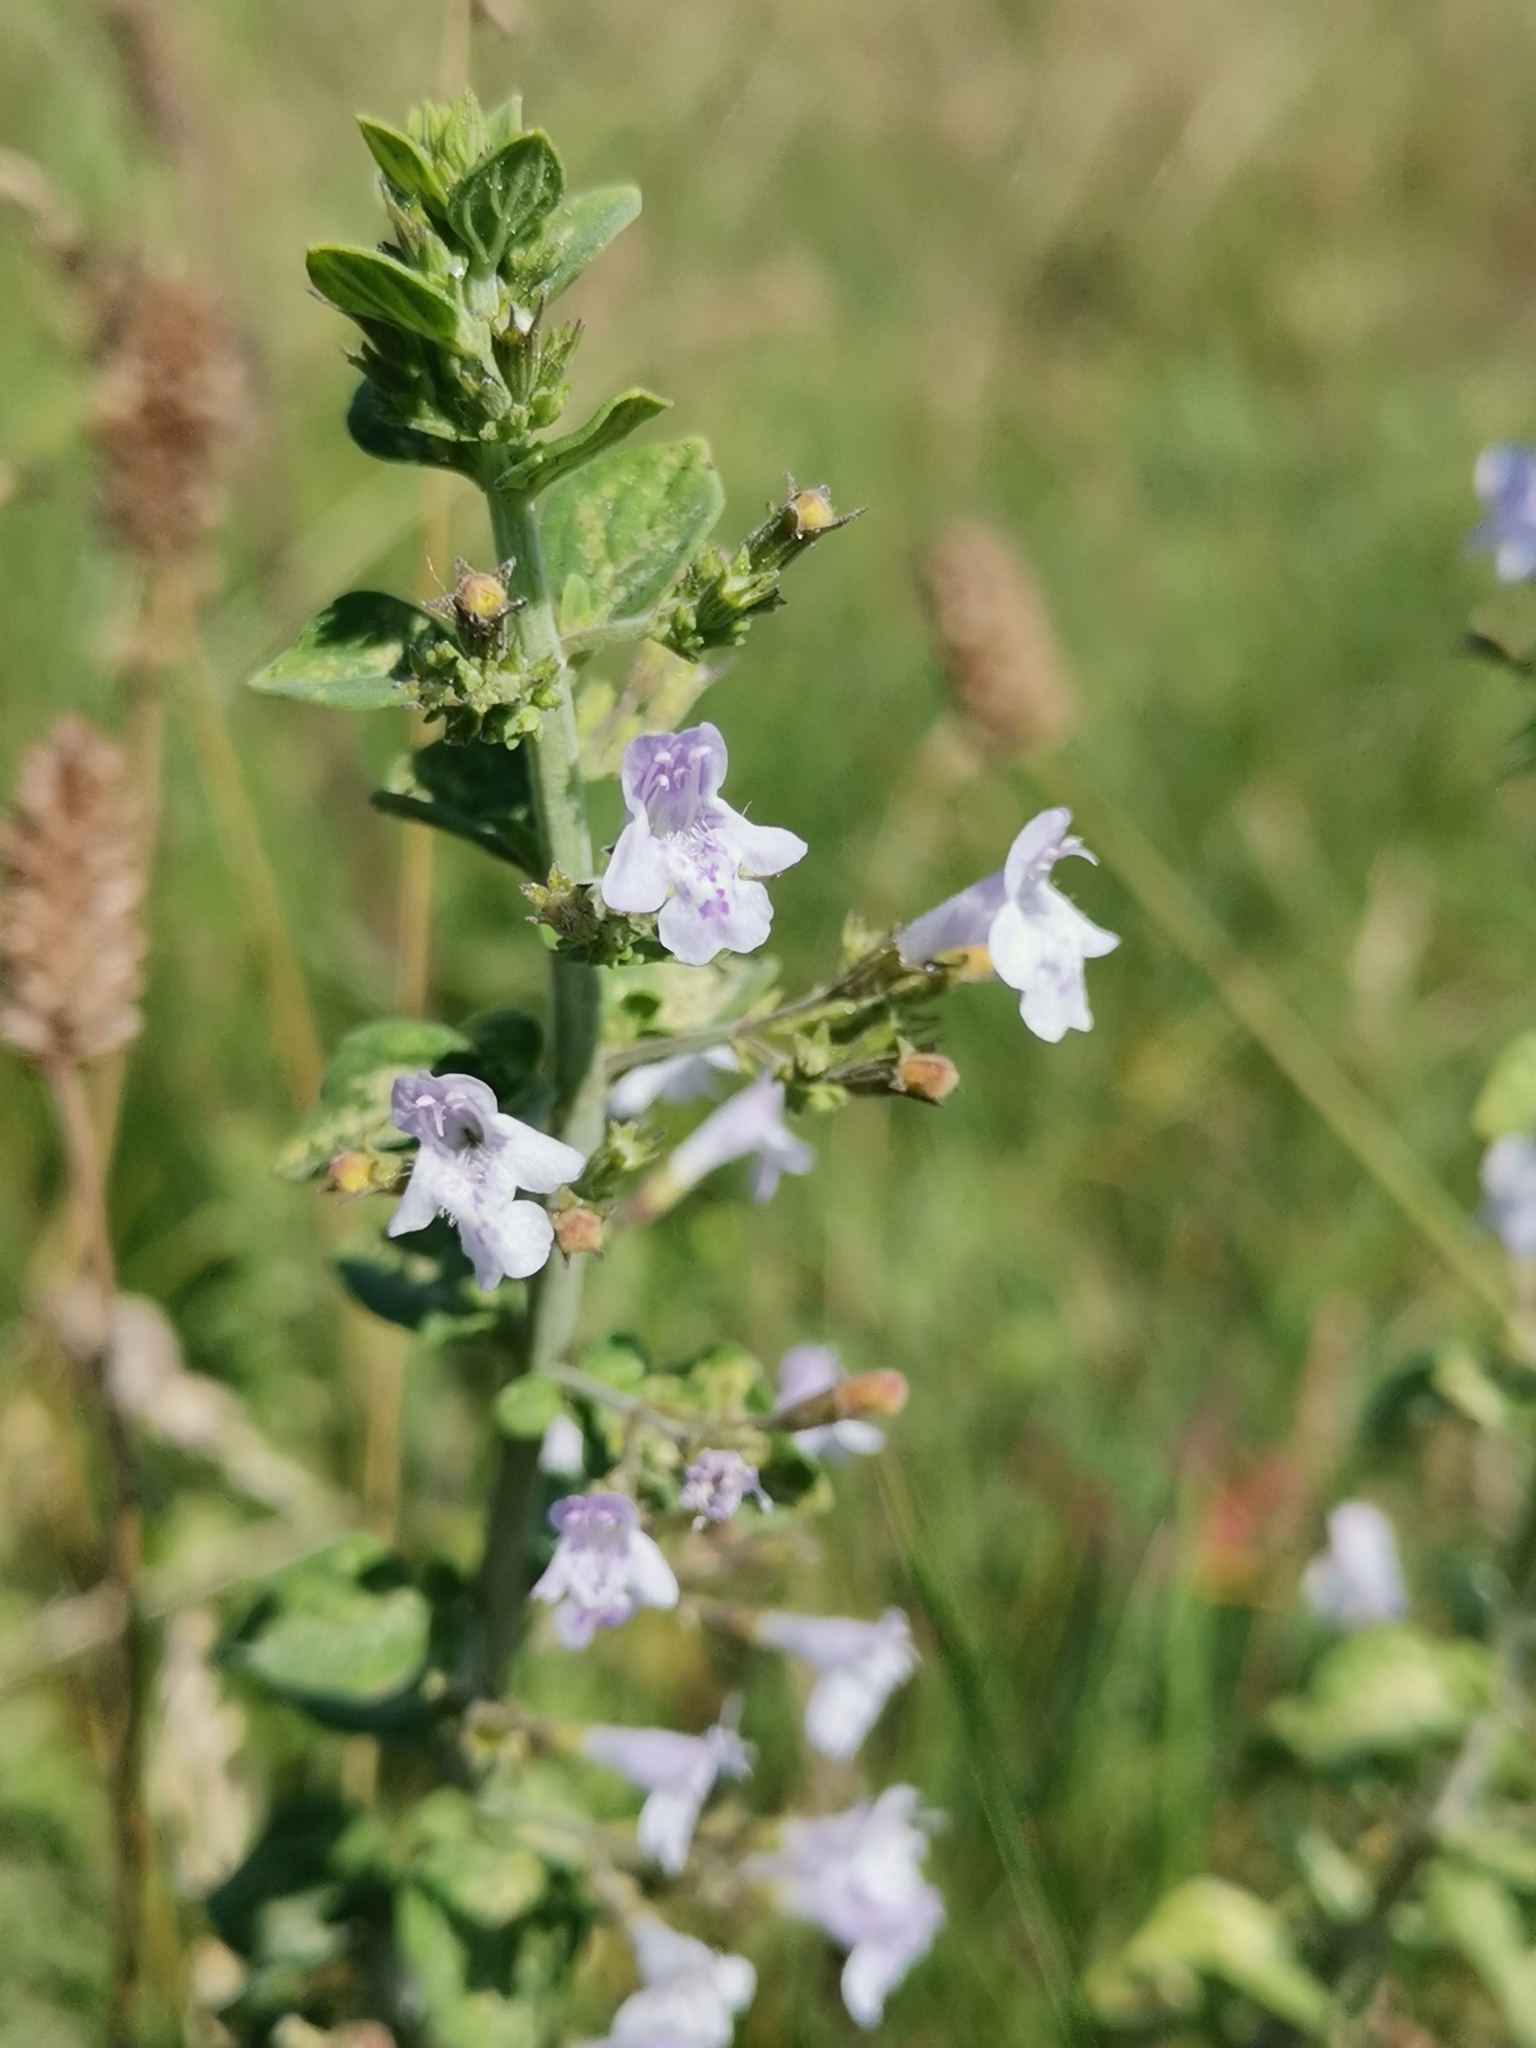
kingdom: Plantae
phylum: Tracheophyta
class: Magnoliopsida
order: Lamiales
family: Lamiaceae
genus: Clinopodium
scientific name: Clinopodium nepeta
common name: Lesser calamint
